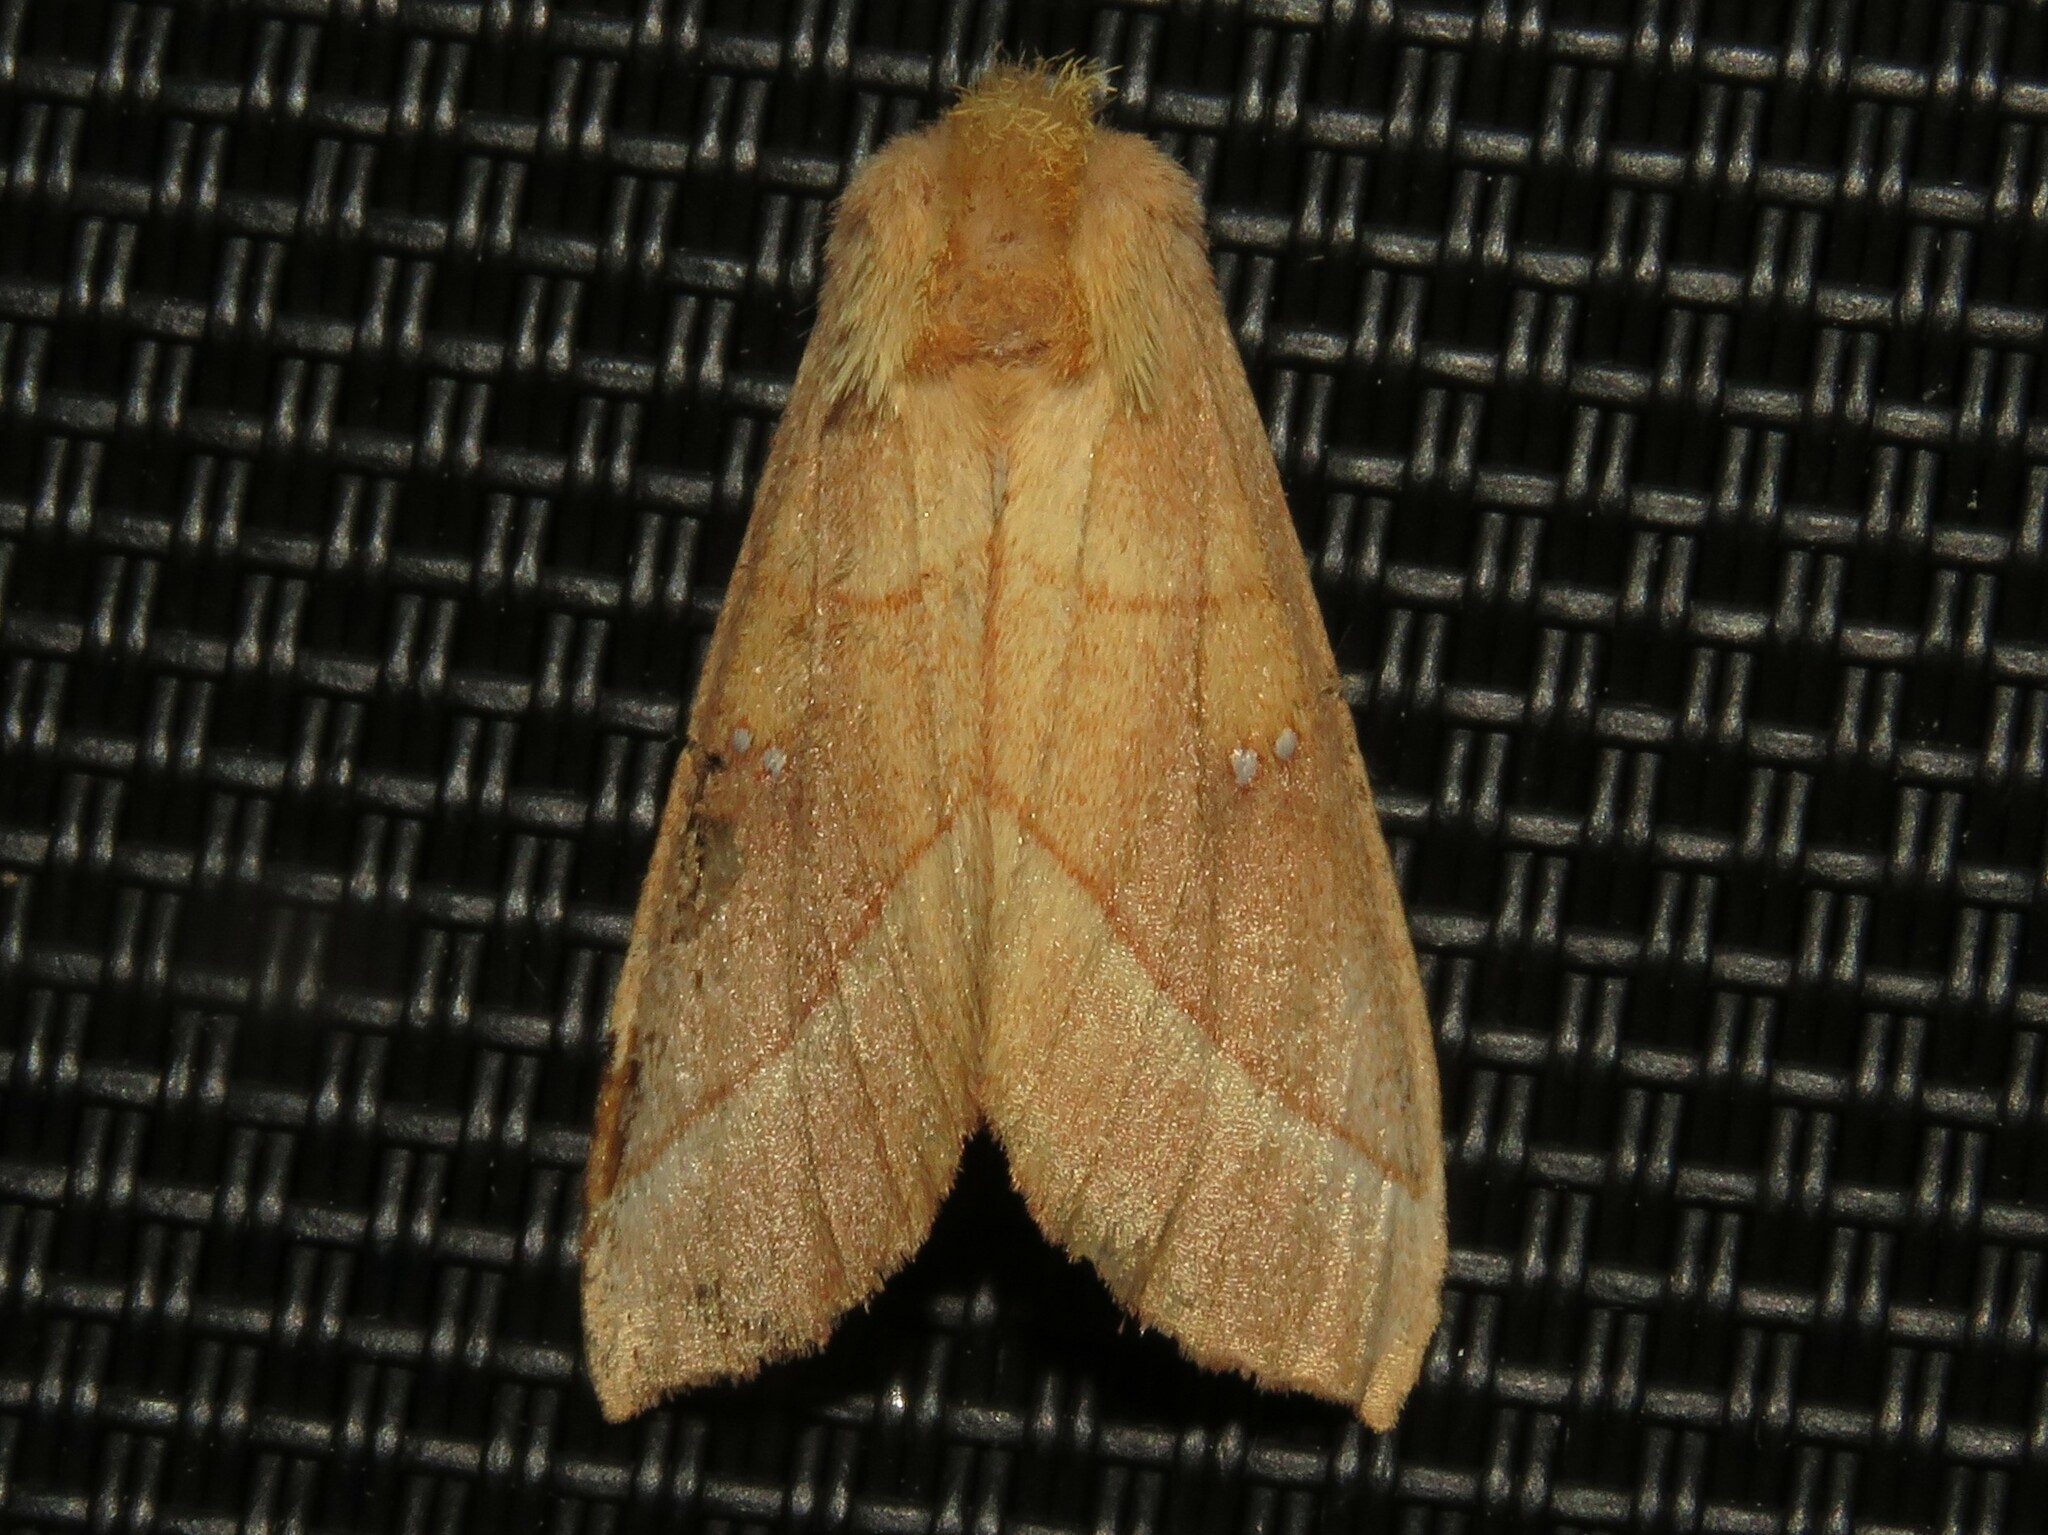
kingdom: Animalia
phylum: Arthropoda
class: Insecta
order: Lepidoptera
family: Notodontidae
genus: Nadata
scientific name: Nadata gibbosa
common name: White-dotted prominent
